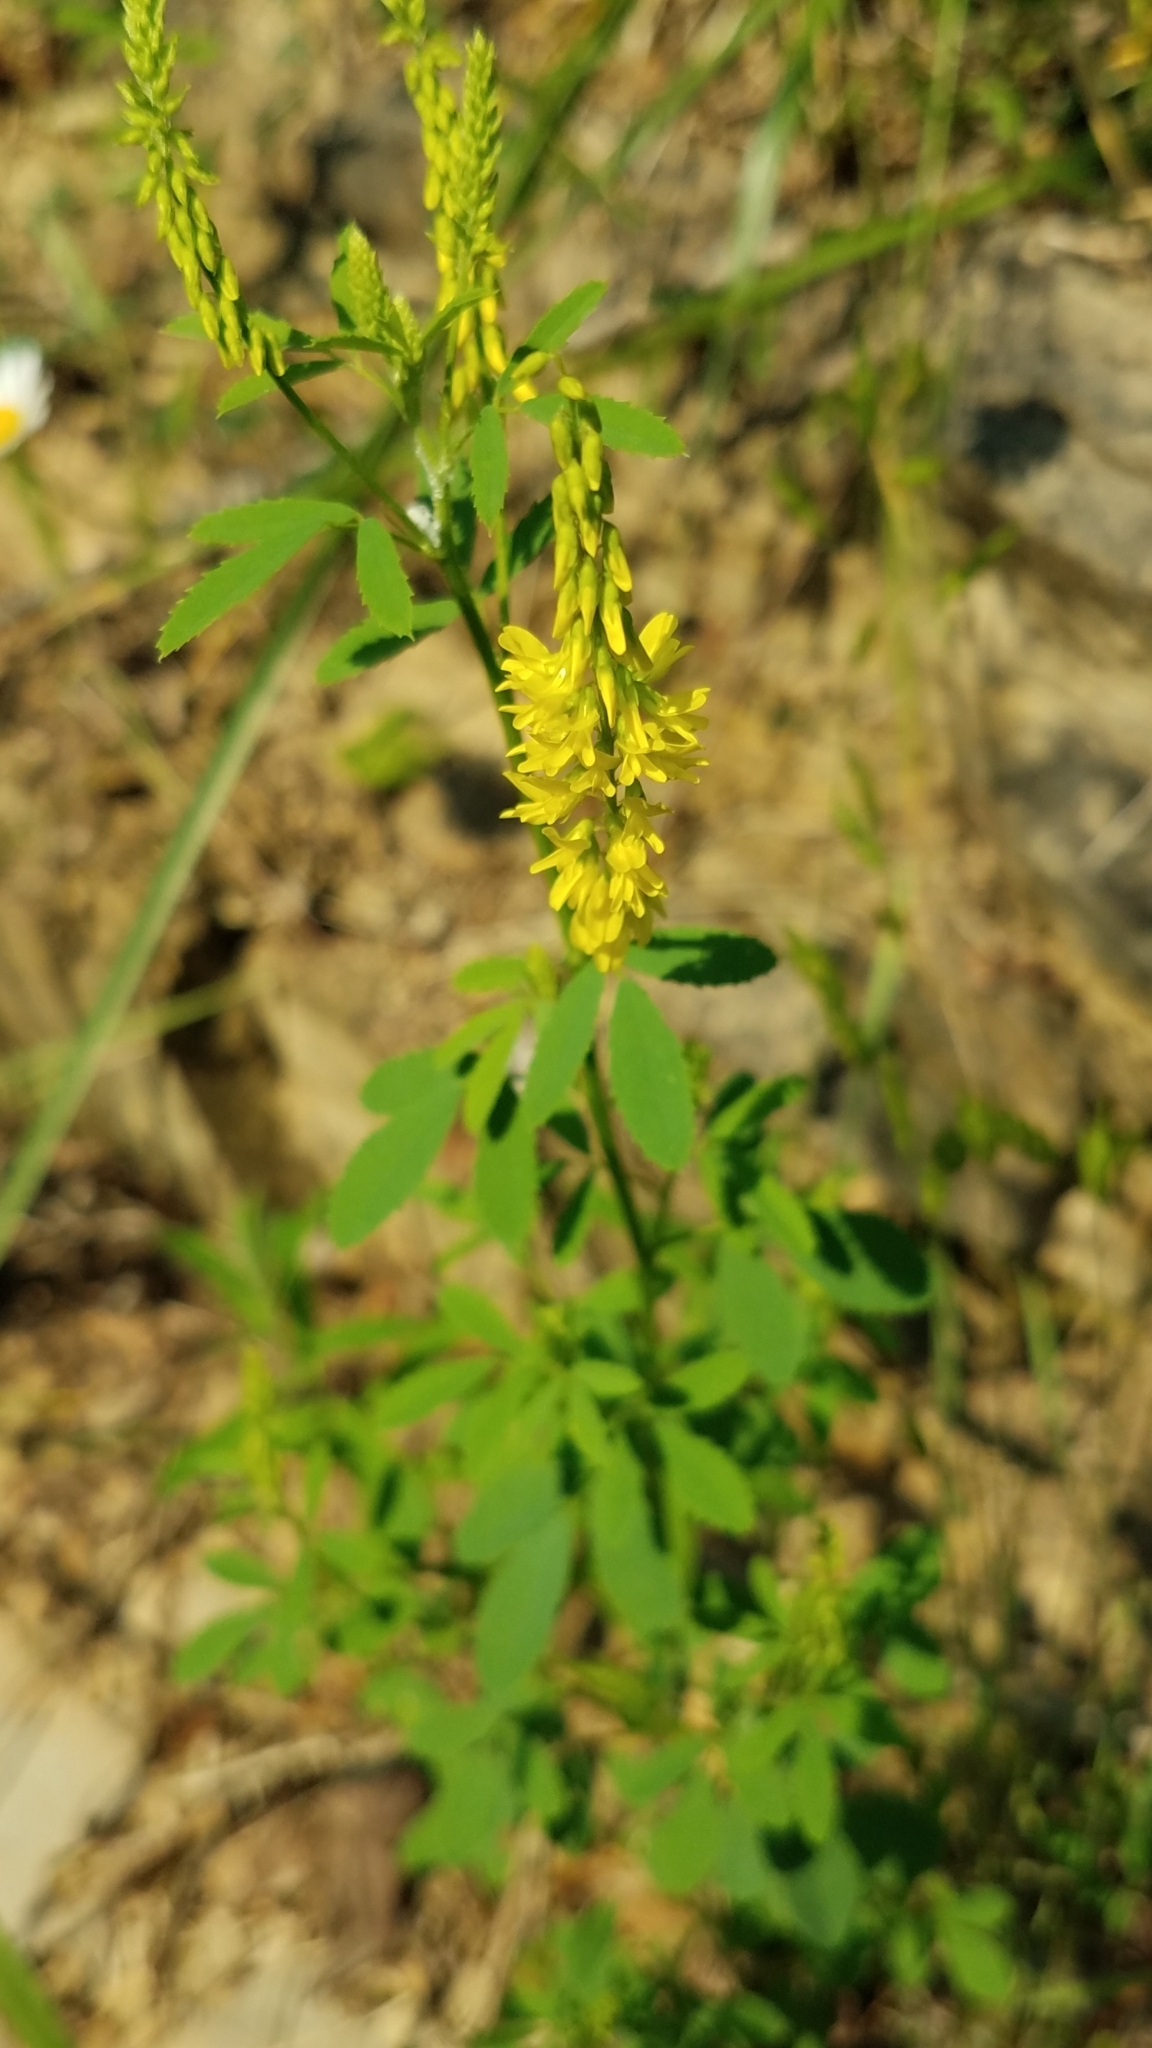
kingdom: Plantae
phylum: Tracheophyta
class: Magnoliopsida
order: Fabales
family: Fabaceae
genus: Melilotus
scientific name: Melilotus officinalis
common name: Sweetclover
